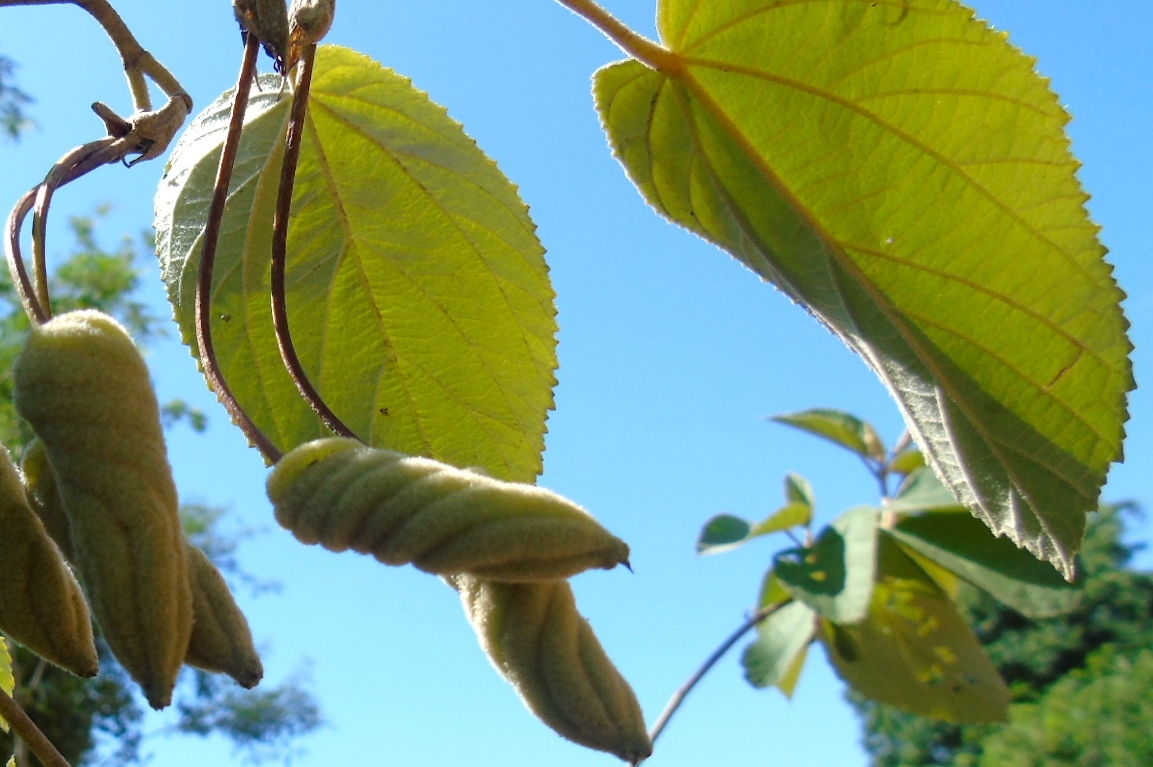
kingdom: Plantae
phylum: Tracheophyta
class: Magnoliopsida
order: Malvales
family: Malvaceae
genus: Helicteres
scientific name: Helicteres baruensis
